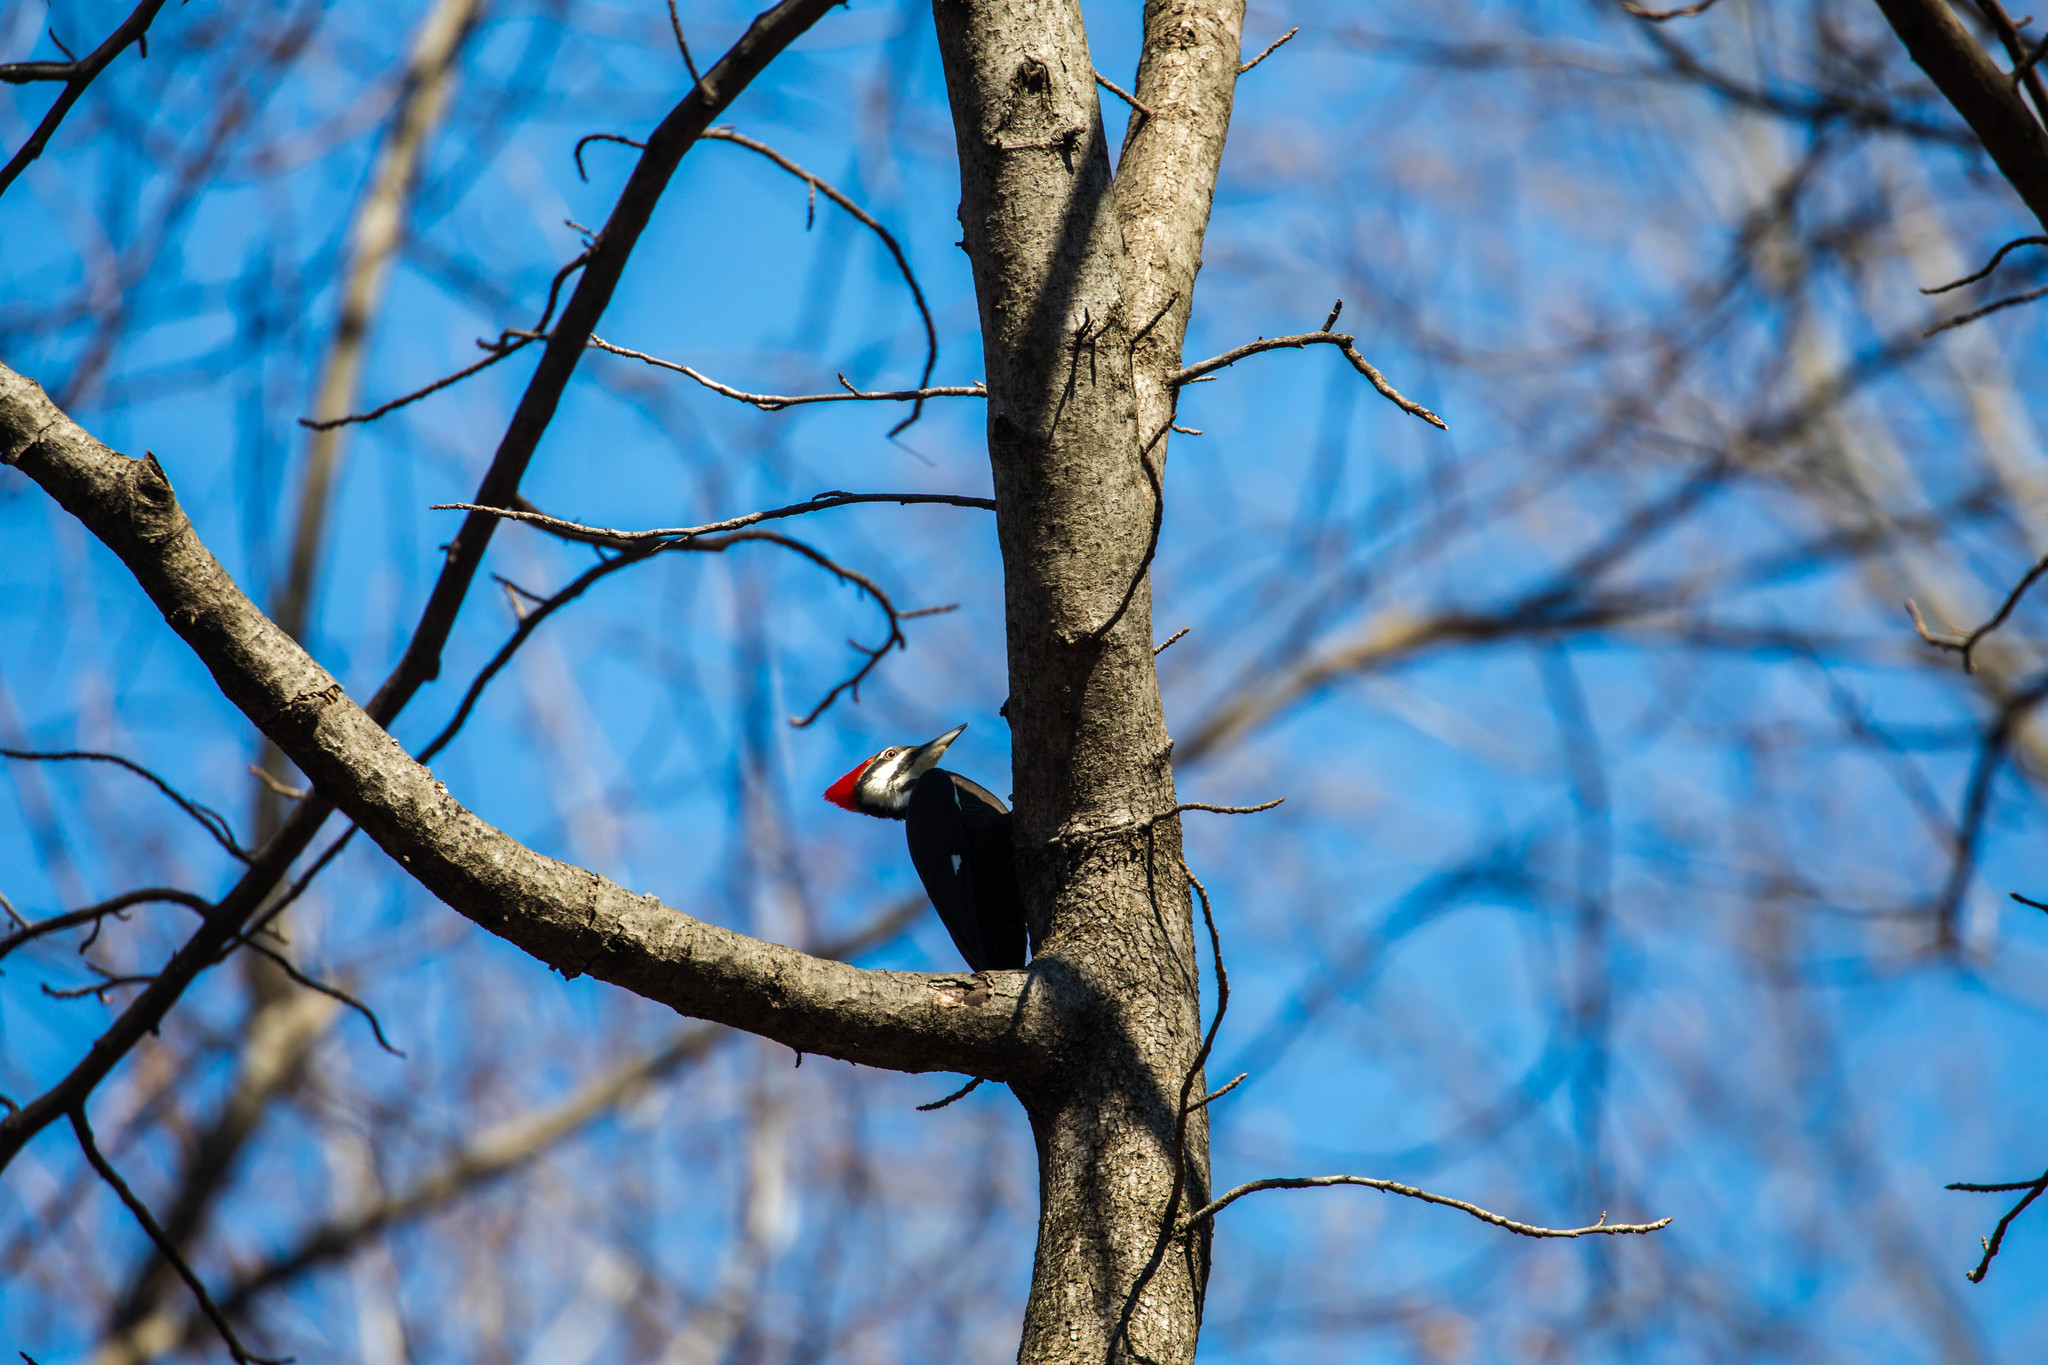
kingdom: Animalia
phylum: Chordata
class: Aves
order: Piciformes
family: Picidae
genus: Dryocopus
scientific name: Dryocopus pileatus
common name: Pileated woodpecker
